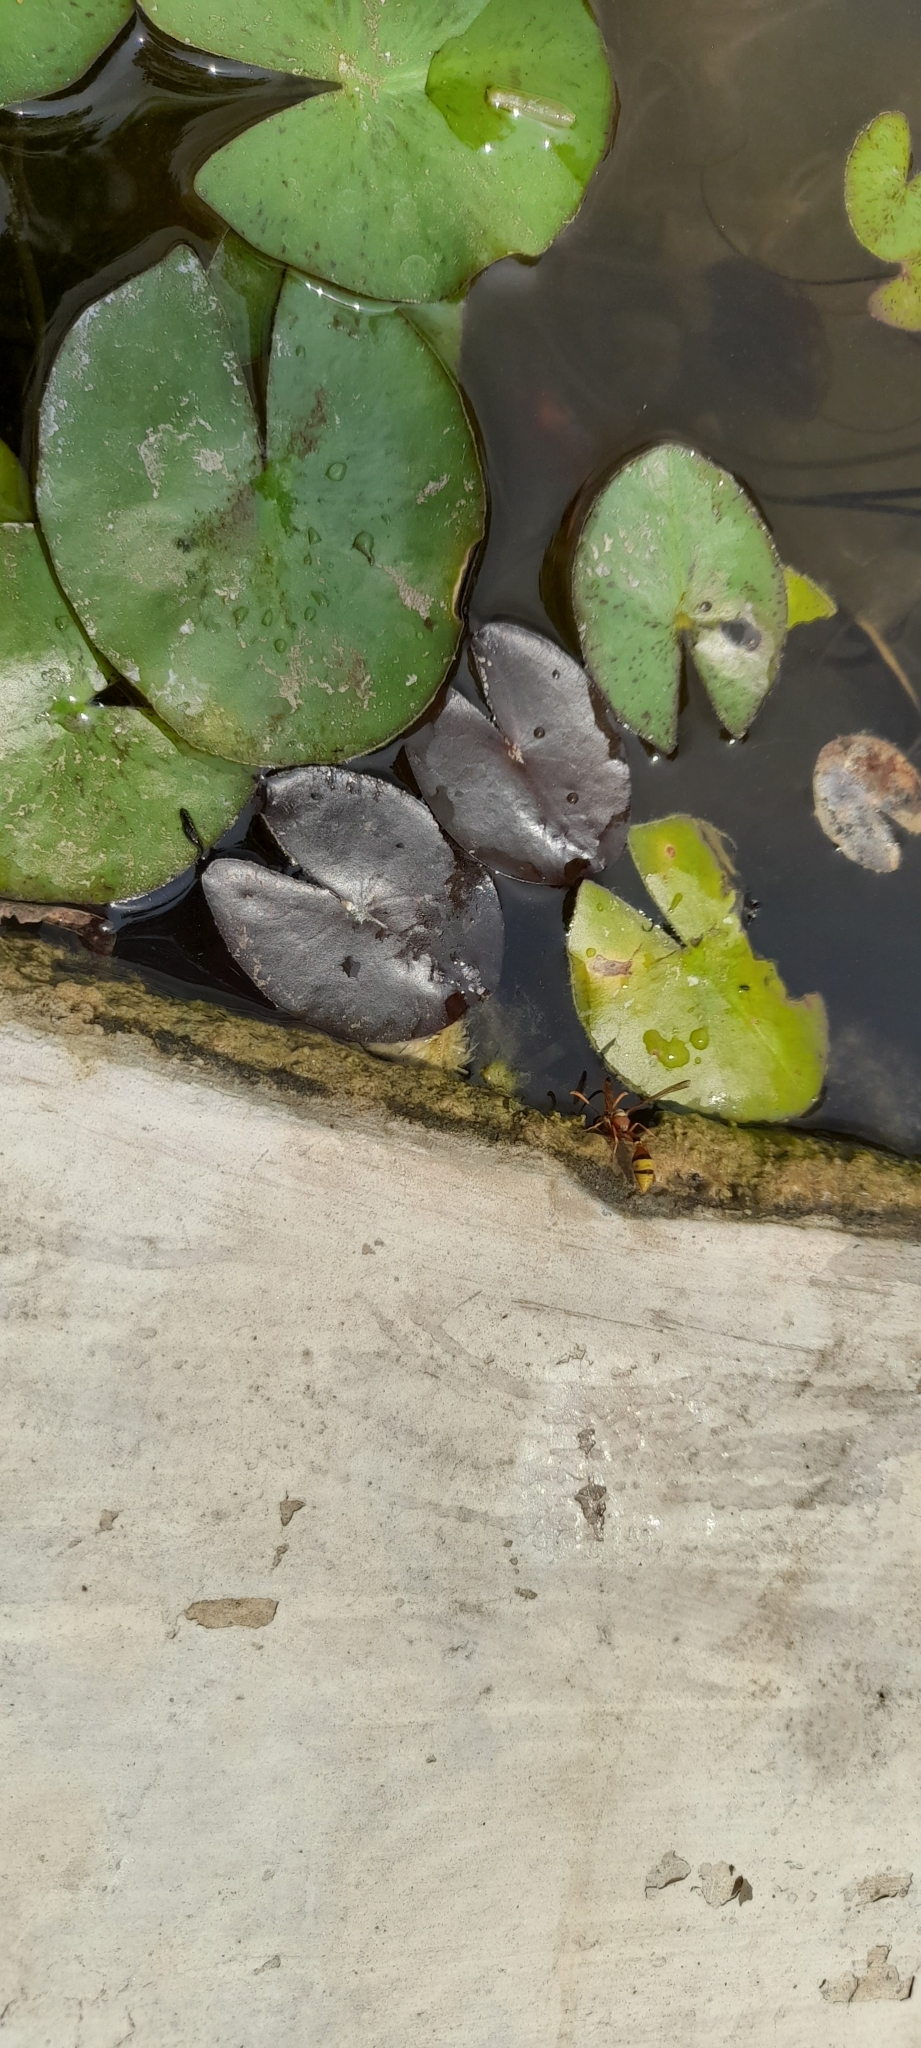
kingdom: Animalia
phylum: Arthropoda
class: Insecta
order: Hymenoptera
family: Eumenidae
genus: Delta
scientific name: Delta esuriens
